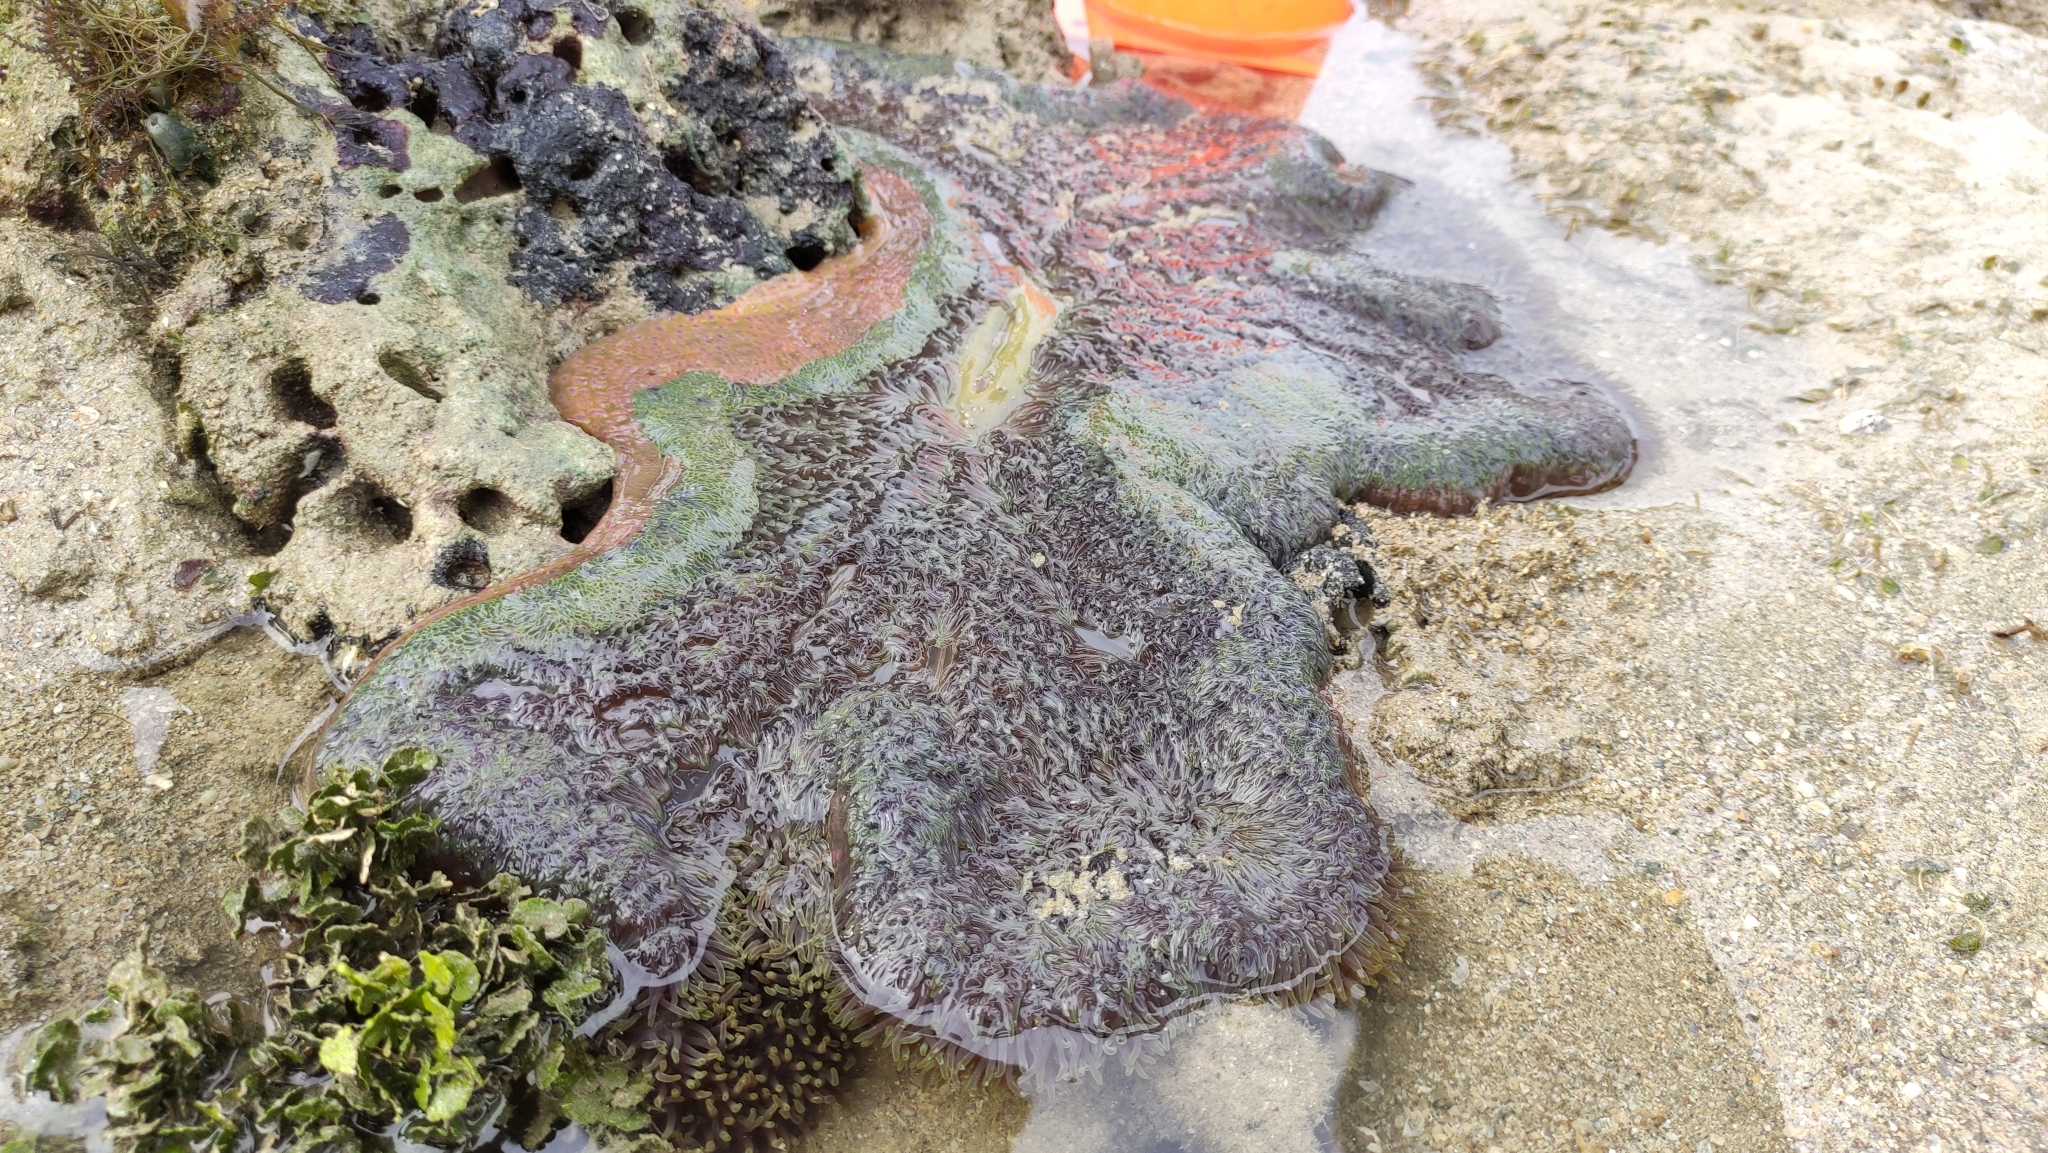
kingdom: Animalia
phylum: Cnidaria
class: Anthozoa
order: Actiniaria
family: Stichodactylidae
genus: Stichodactyla
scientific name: Stichodactyla gigantea
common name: Giant anemone
